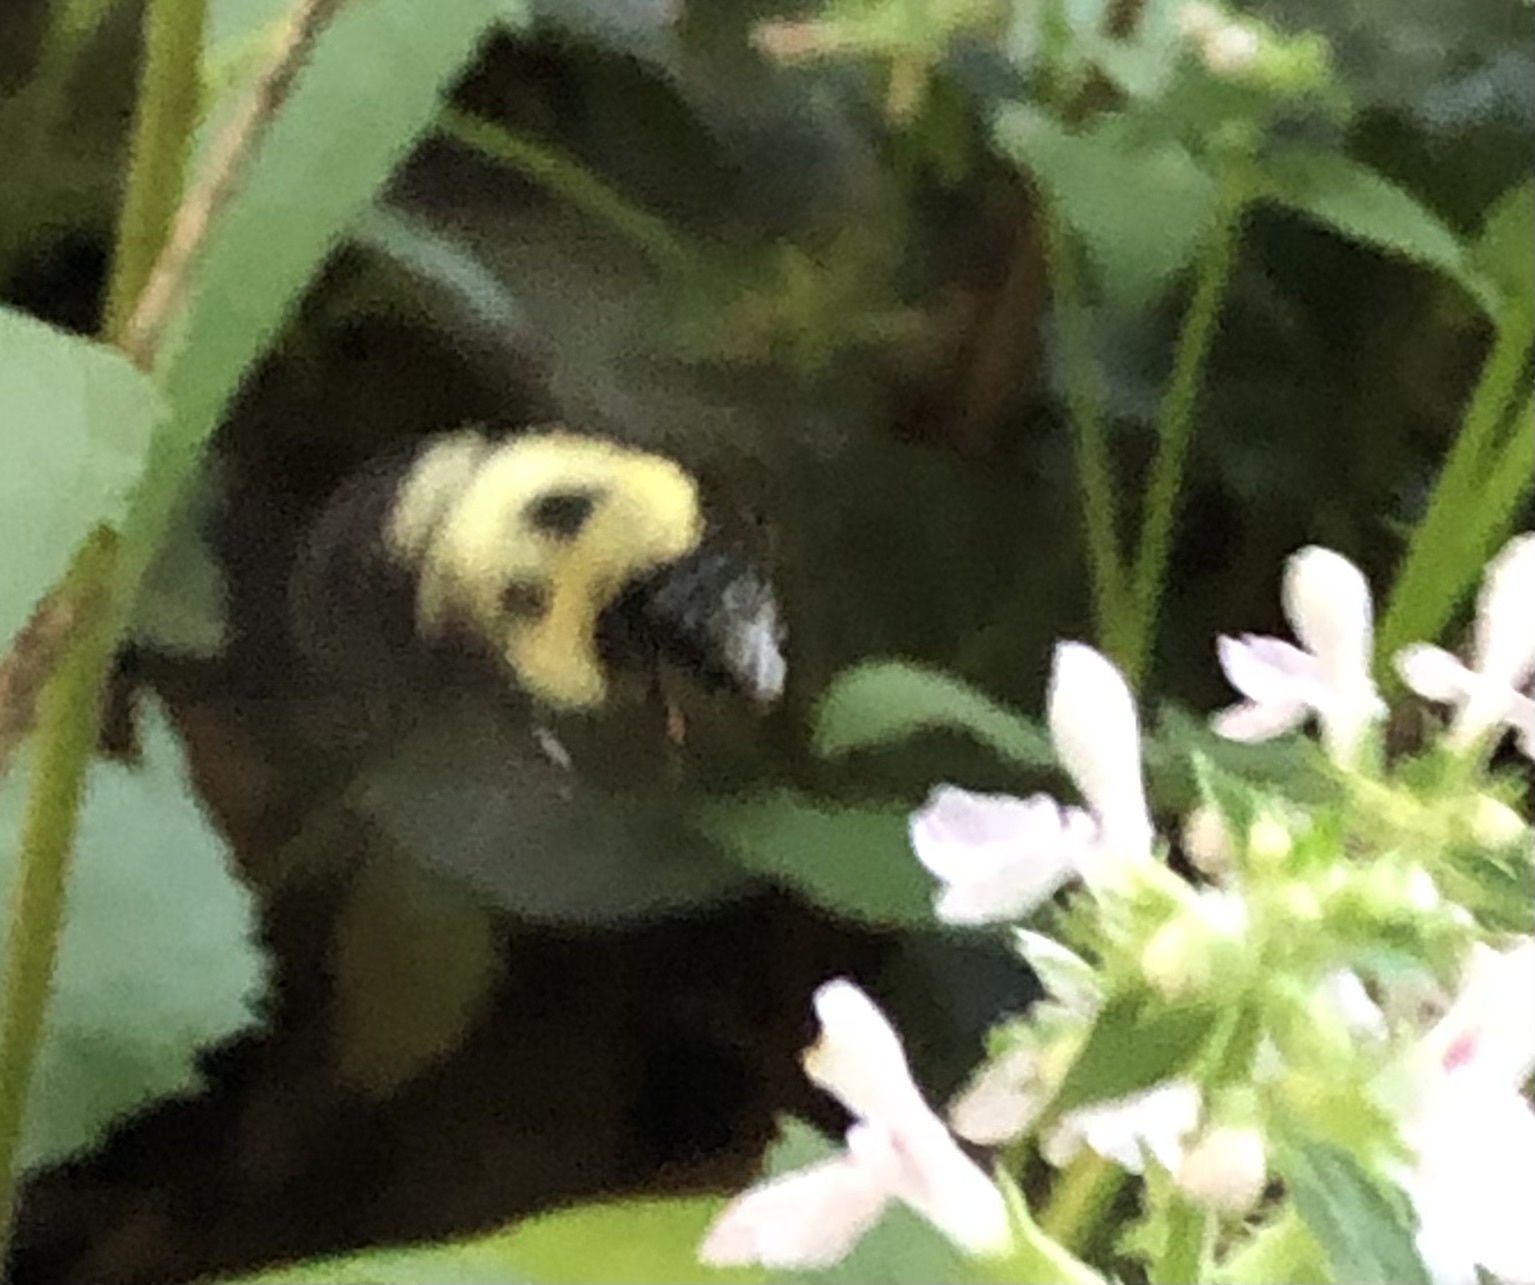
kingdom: Animalia
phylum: Arthropoda
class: Insecta
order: Hymenoptera
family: Apidae
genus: Bombus
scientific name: Bombus bimaculatus
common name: Two-spotted bumble bee
